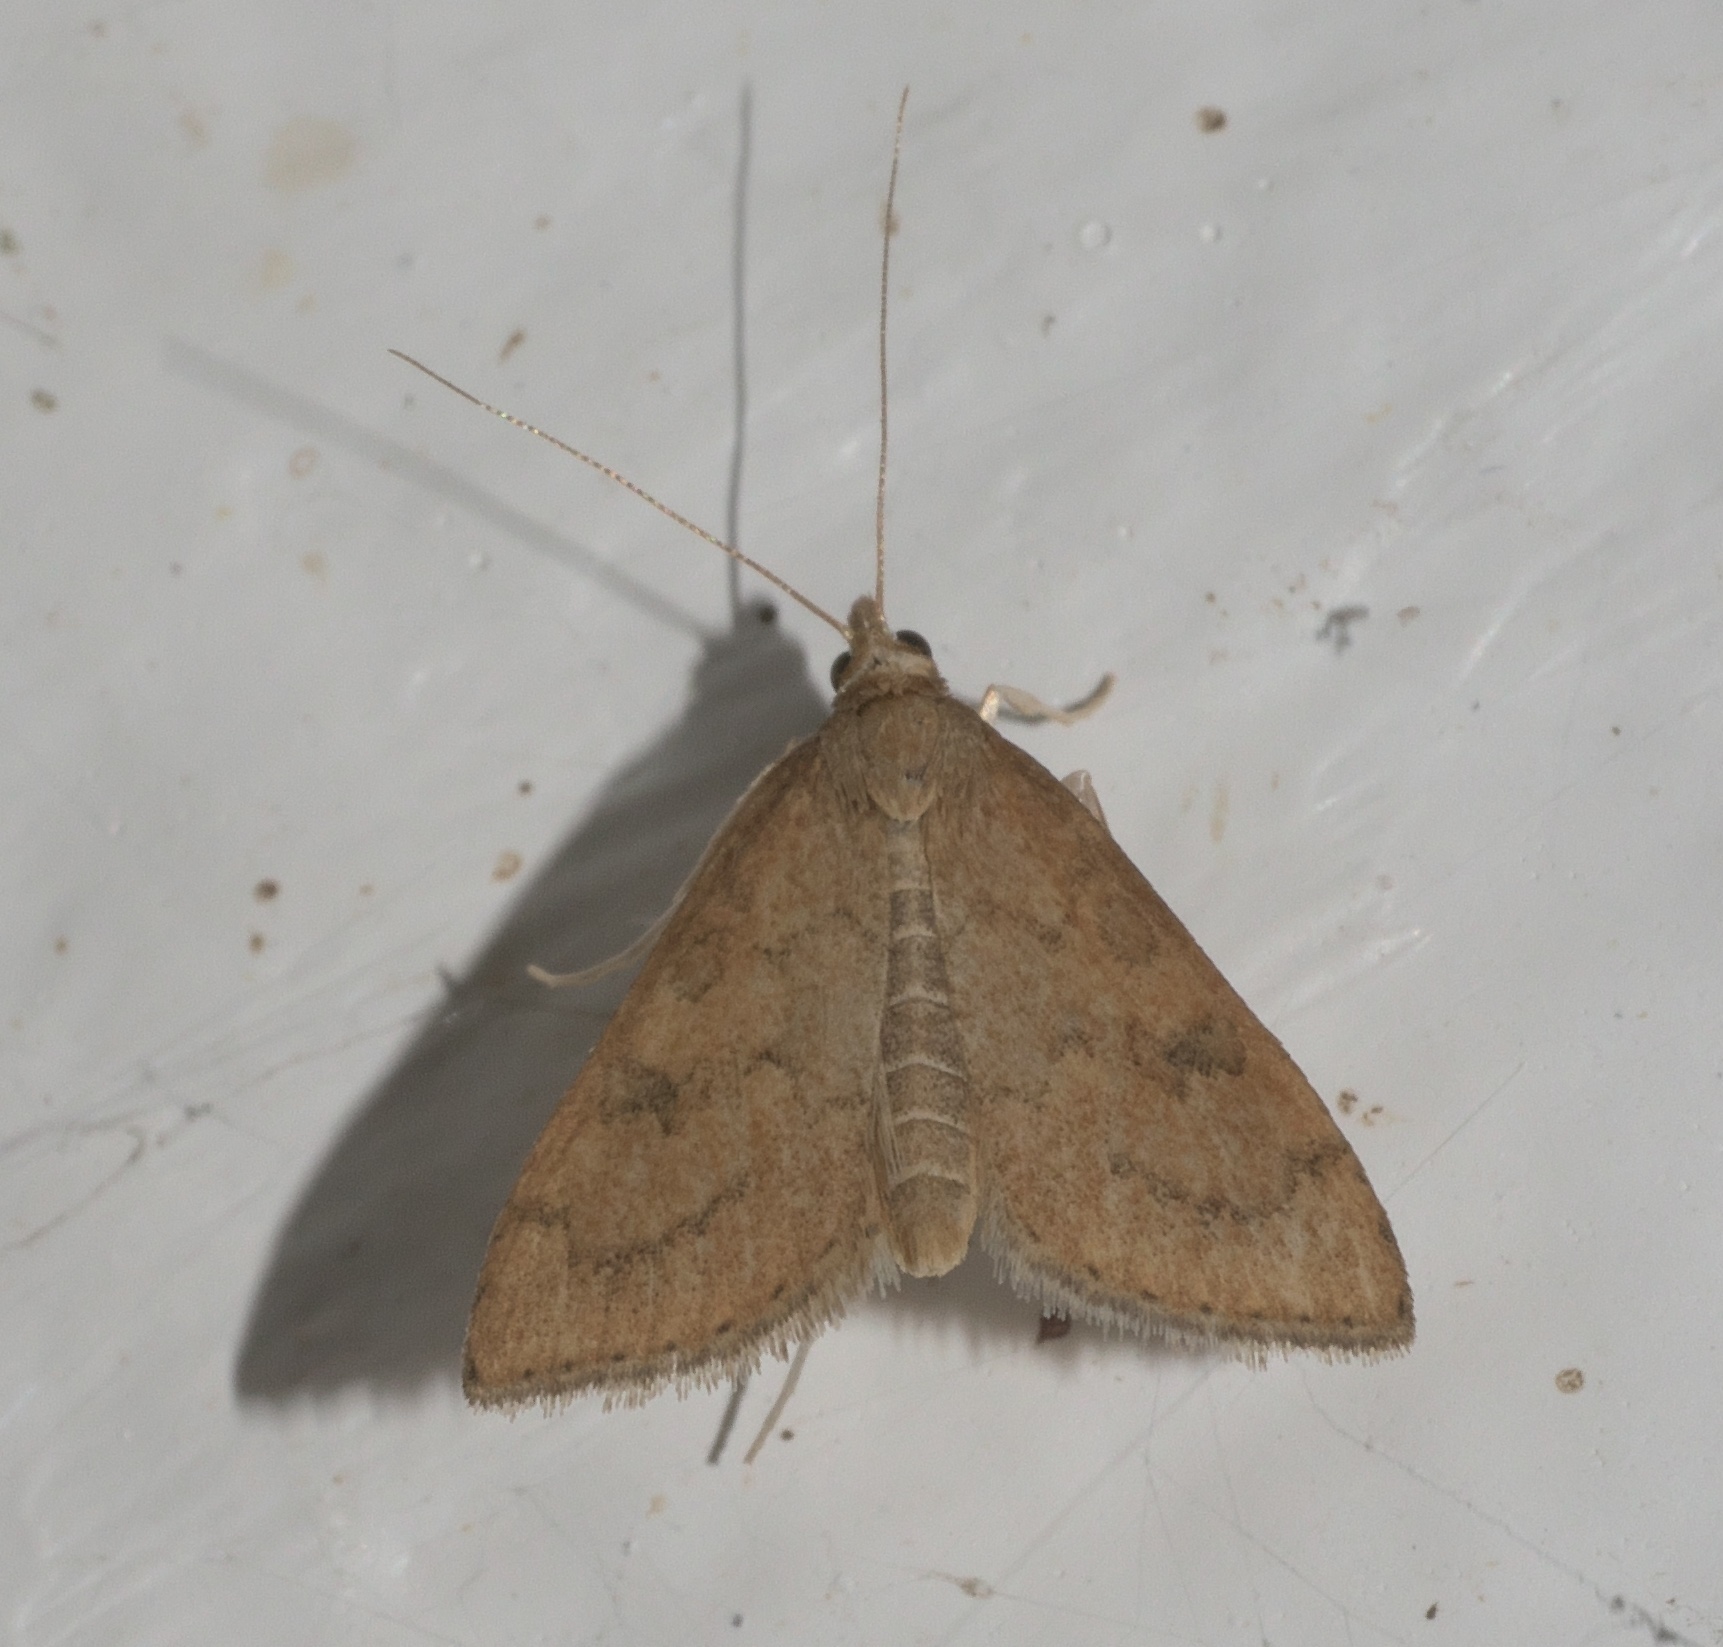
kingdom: Animalia
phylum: Arthropoda
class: Insecta
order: Lepidoptera
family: Crambidae
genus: Udea
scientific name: Udea rubigalis
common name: Celery leaftier moth
